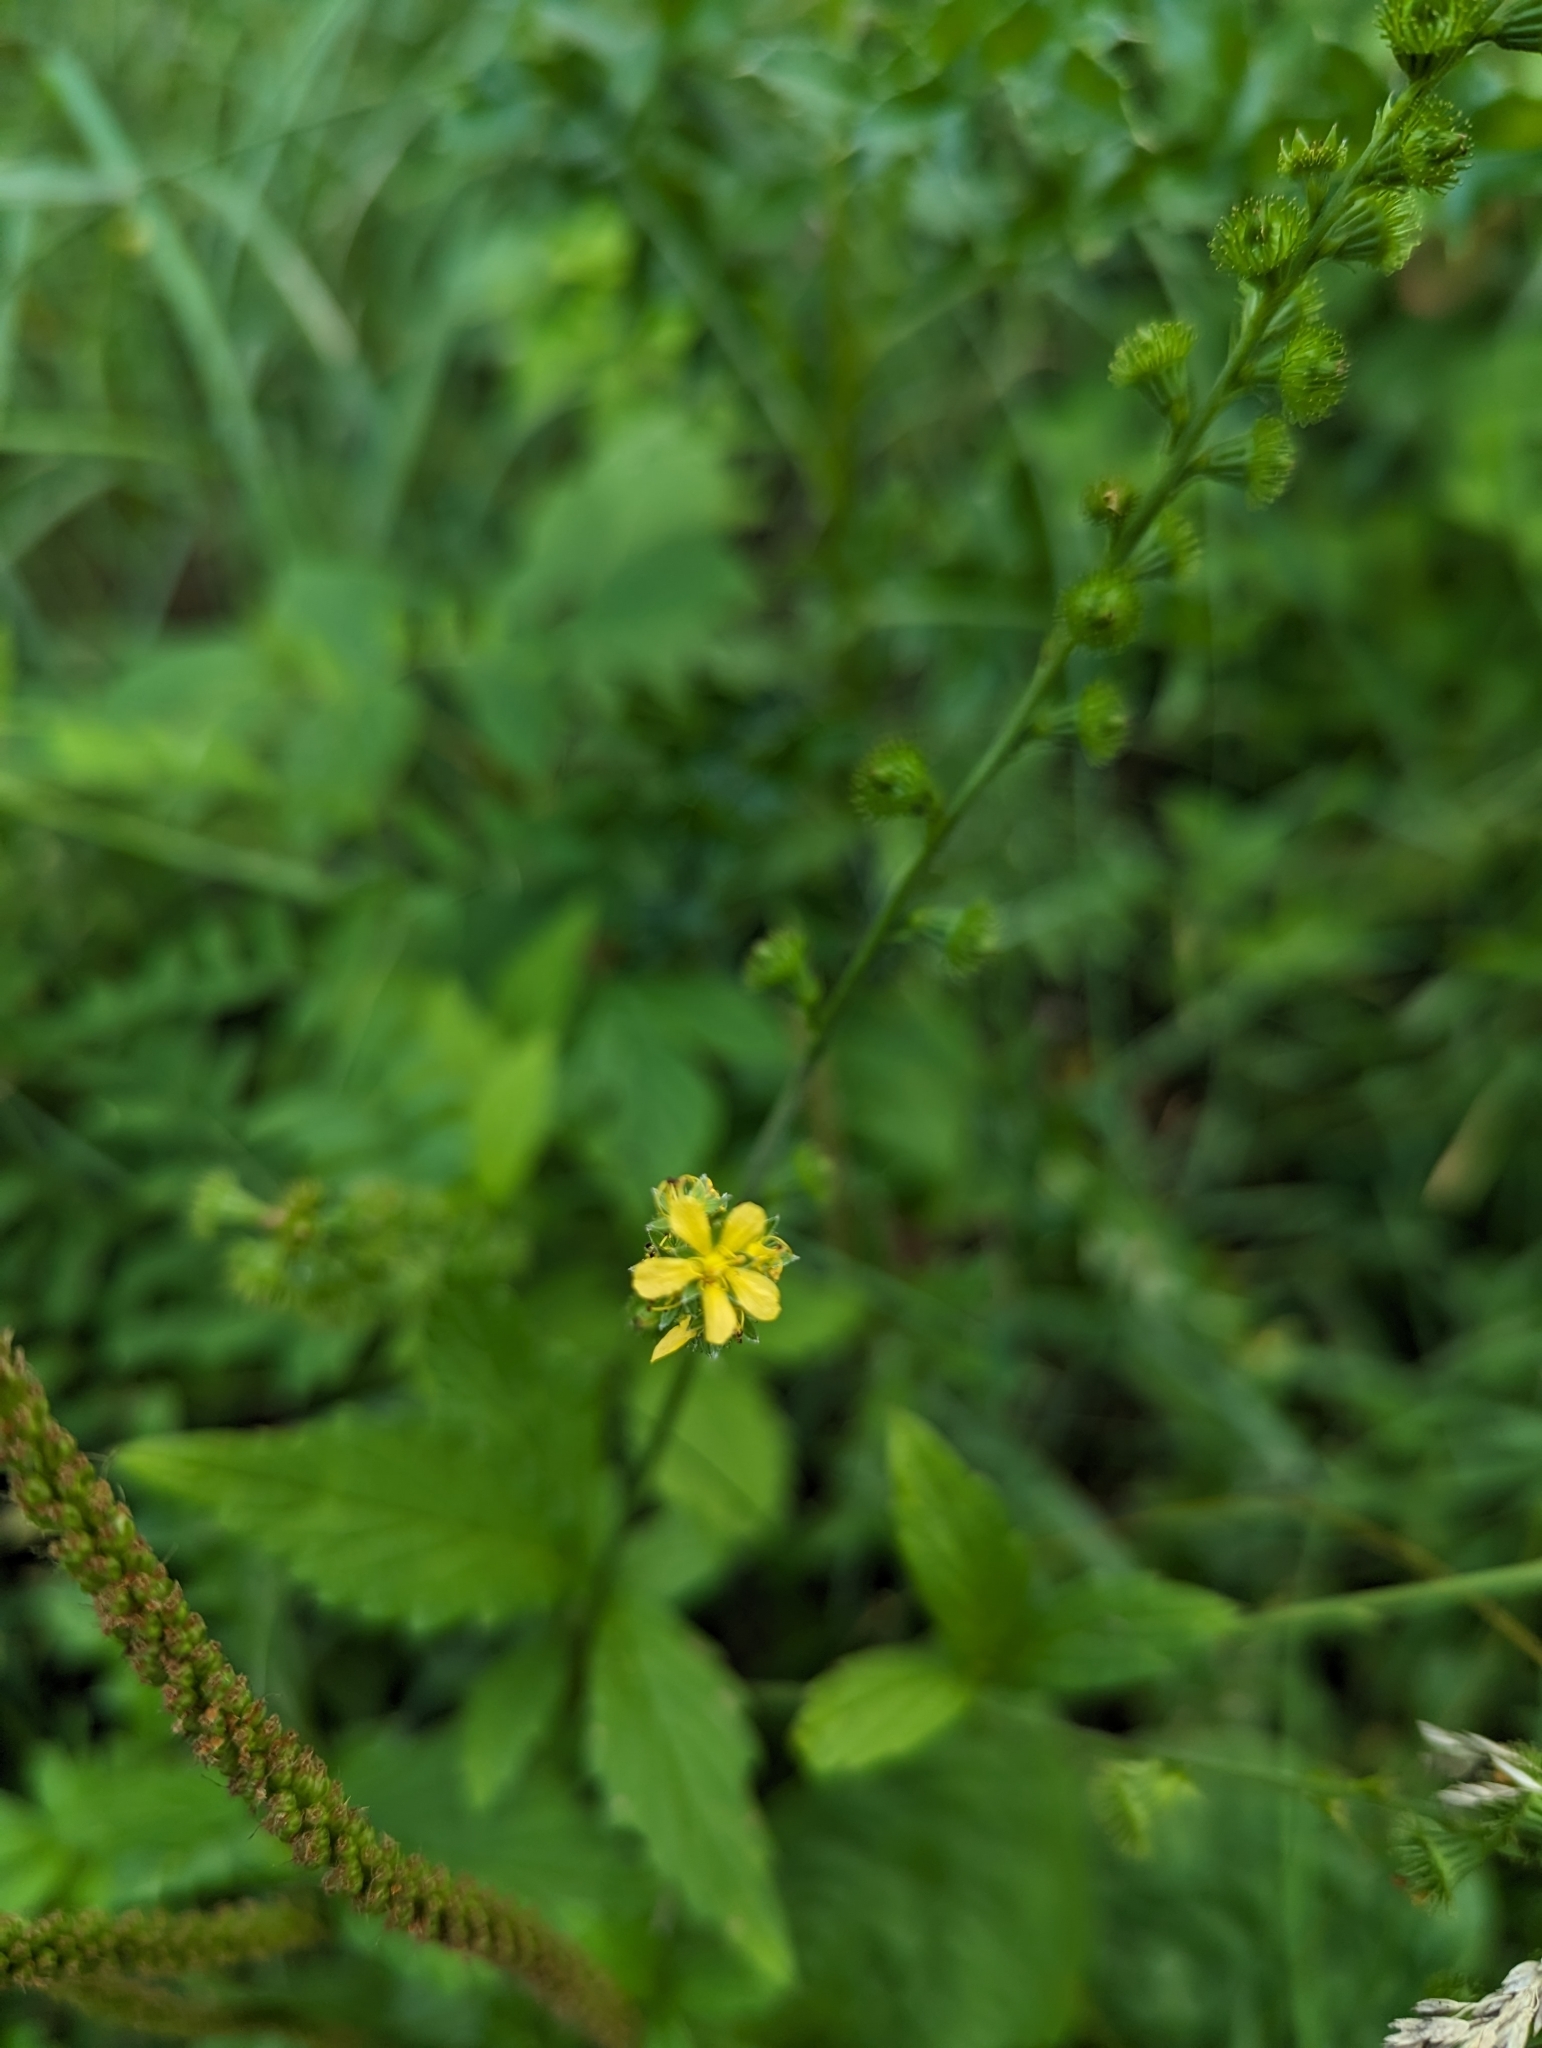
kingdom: Plantae
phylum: Tracheophyta
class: Magnoliopsida
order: Rosales
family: Rosaceae
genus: Agrimonia
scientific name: Agrimonia striata
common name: Britton's agrimony
